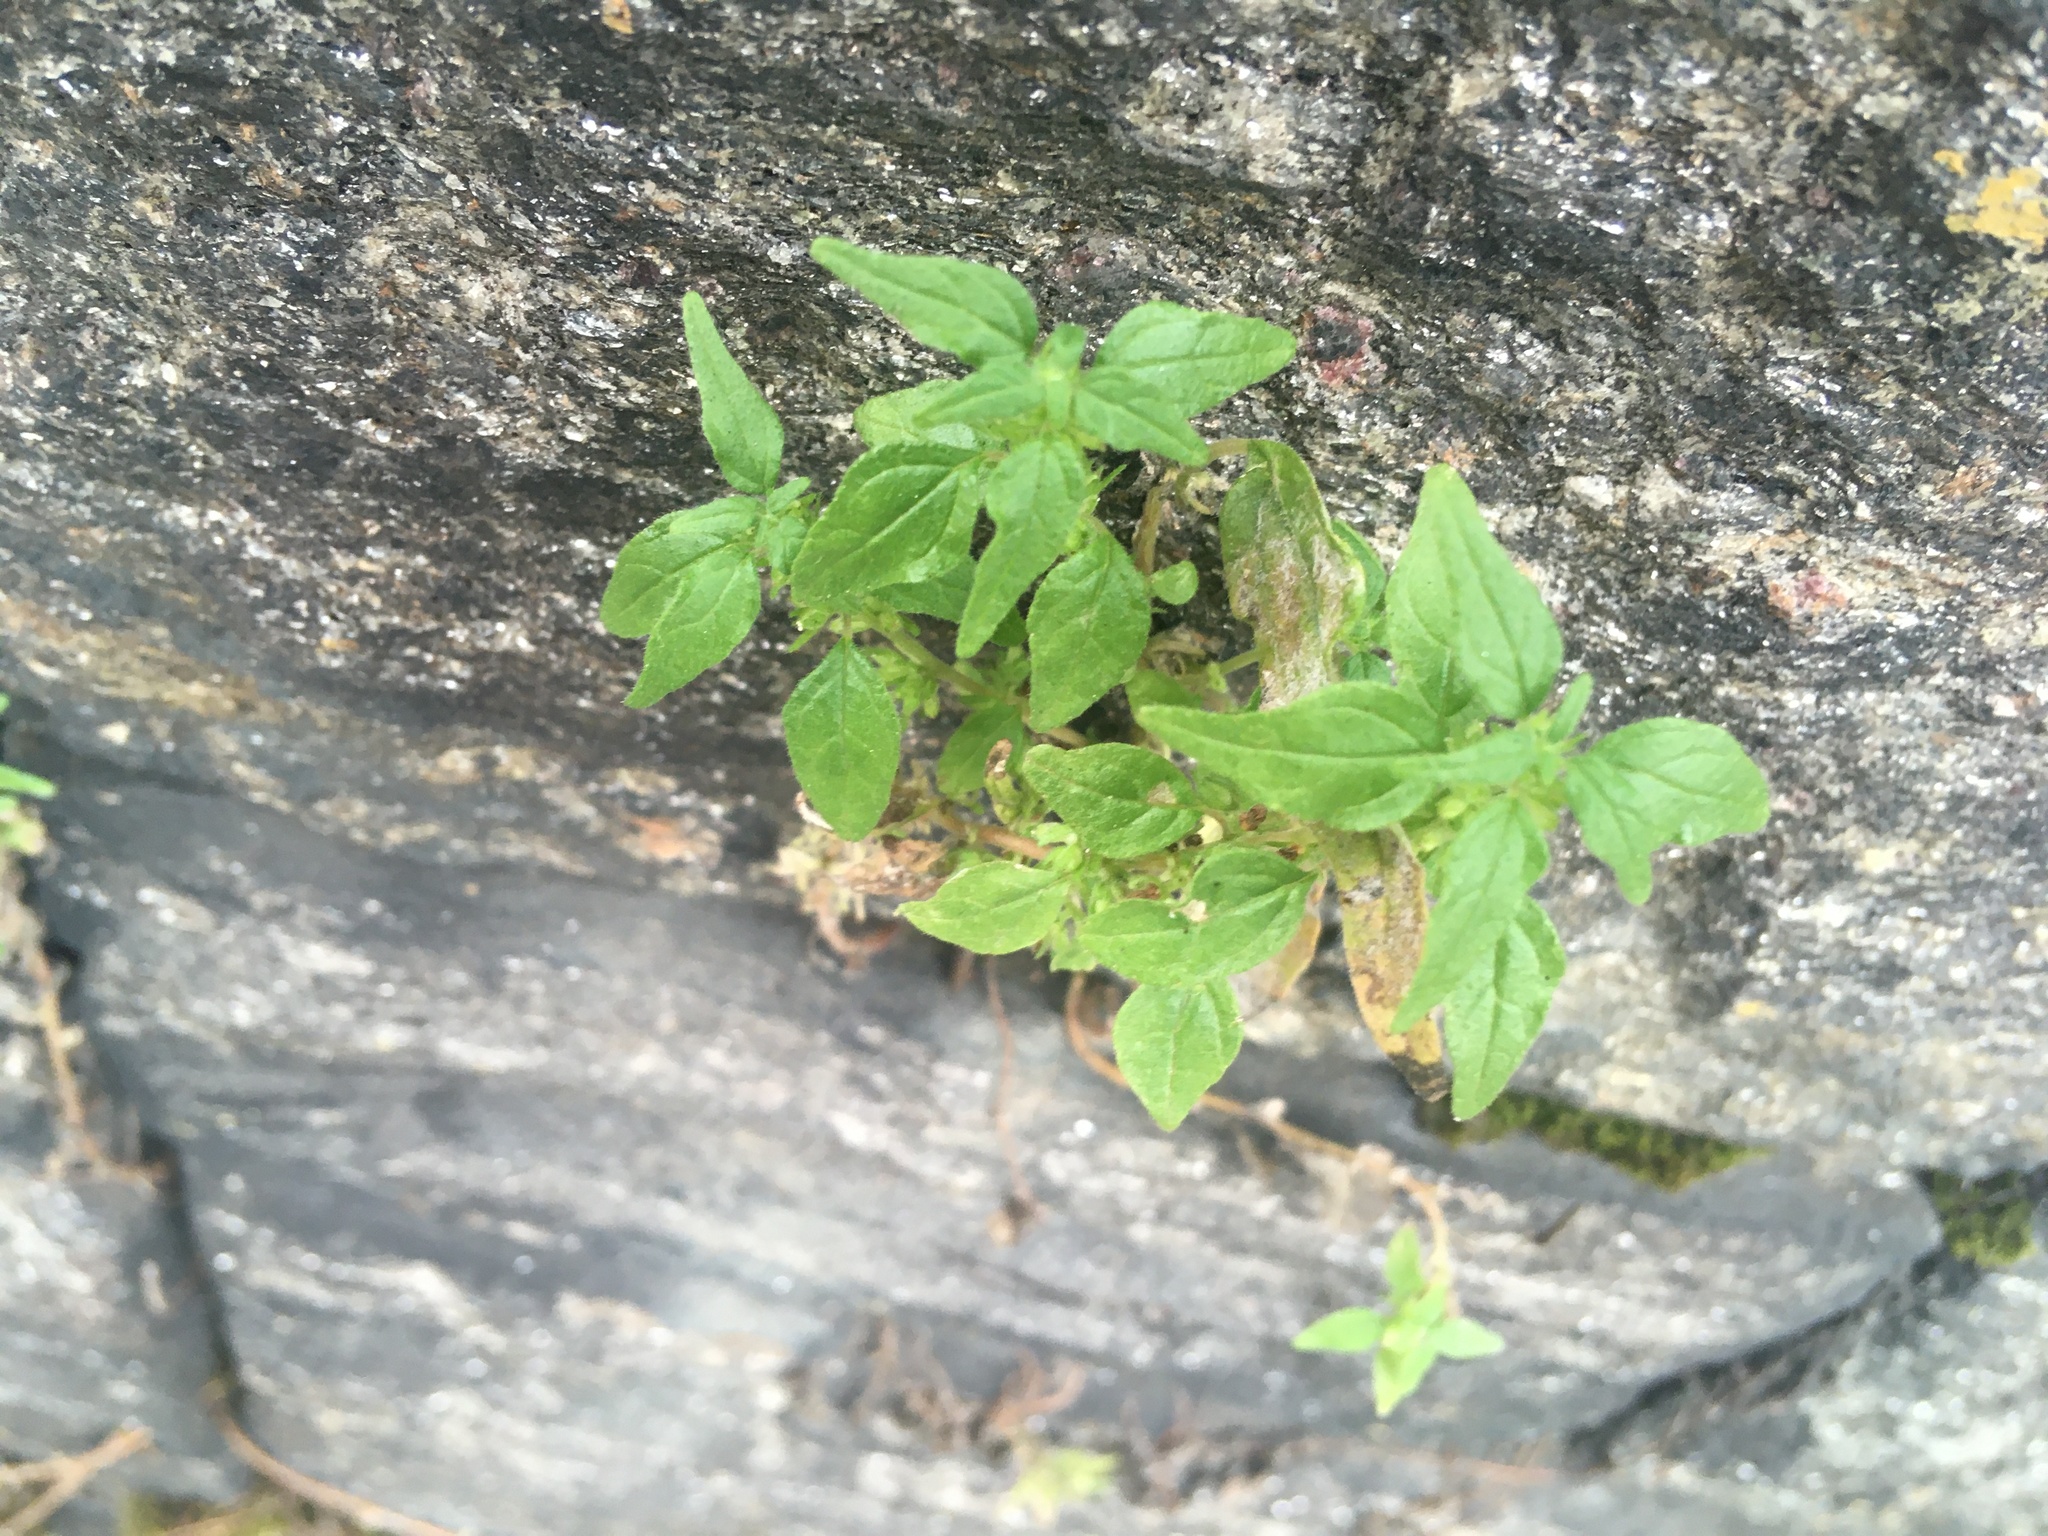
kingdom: Plantae
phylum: Tracheophyta
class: Magnoliopsida
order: Rosales
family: Urticaceae
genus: Parietaria
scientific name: Parietaria pensylvanica
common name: Pennsylvania pellitory
